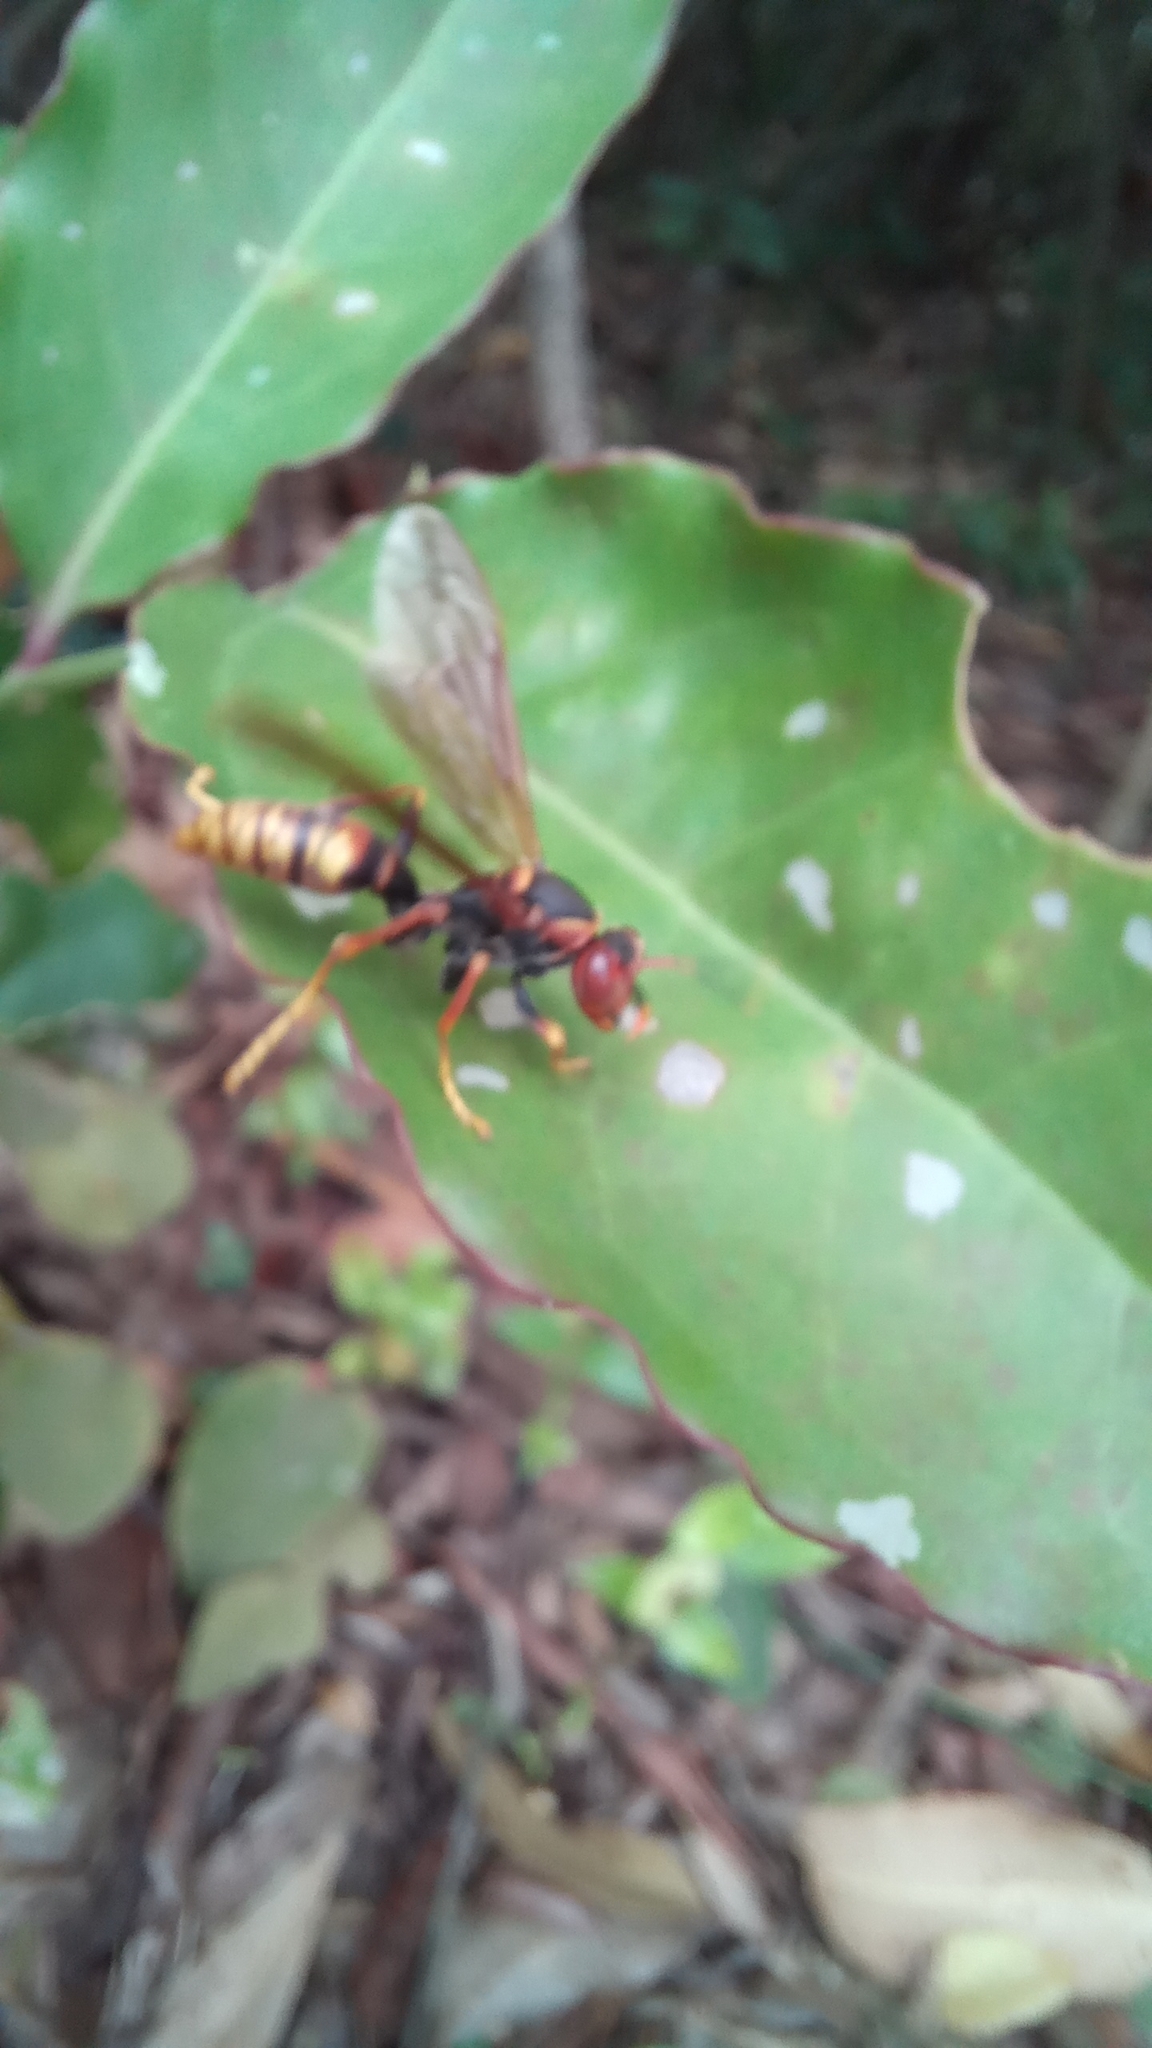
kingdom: Animalia
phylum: Arthropoda
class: Insecta
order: Hymenoptera
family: Eumenidae
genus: Polistes
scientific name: Polistes cavapytiformis
